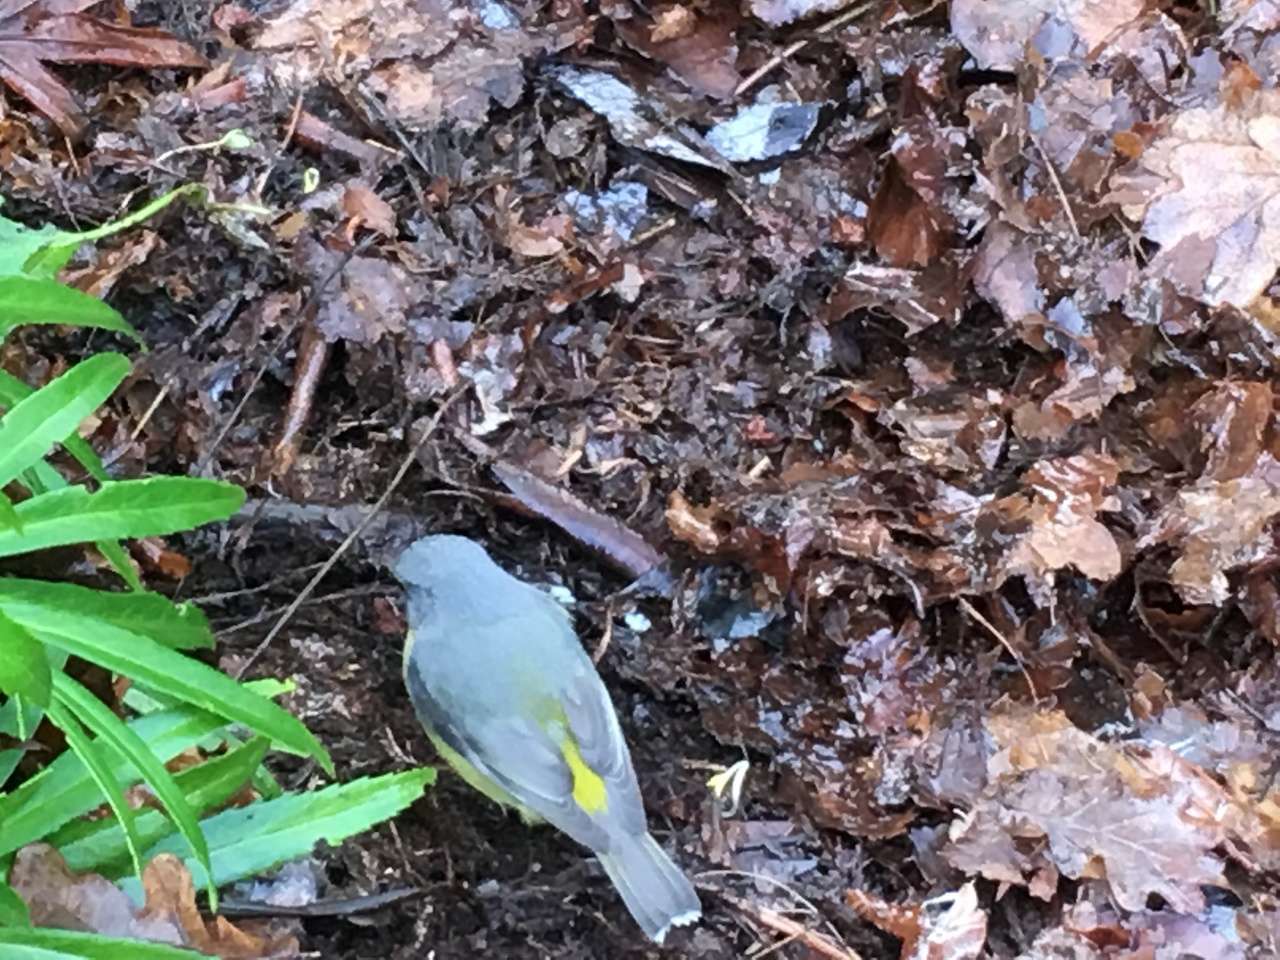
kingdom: Animalia
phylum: Chordata
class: Aves
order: Passeriformes
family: Petroicidae
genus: Eopsaltria
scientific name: Eopsaltria australis
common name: Eastern yellow robin
